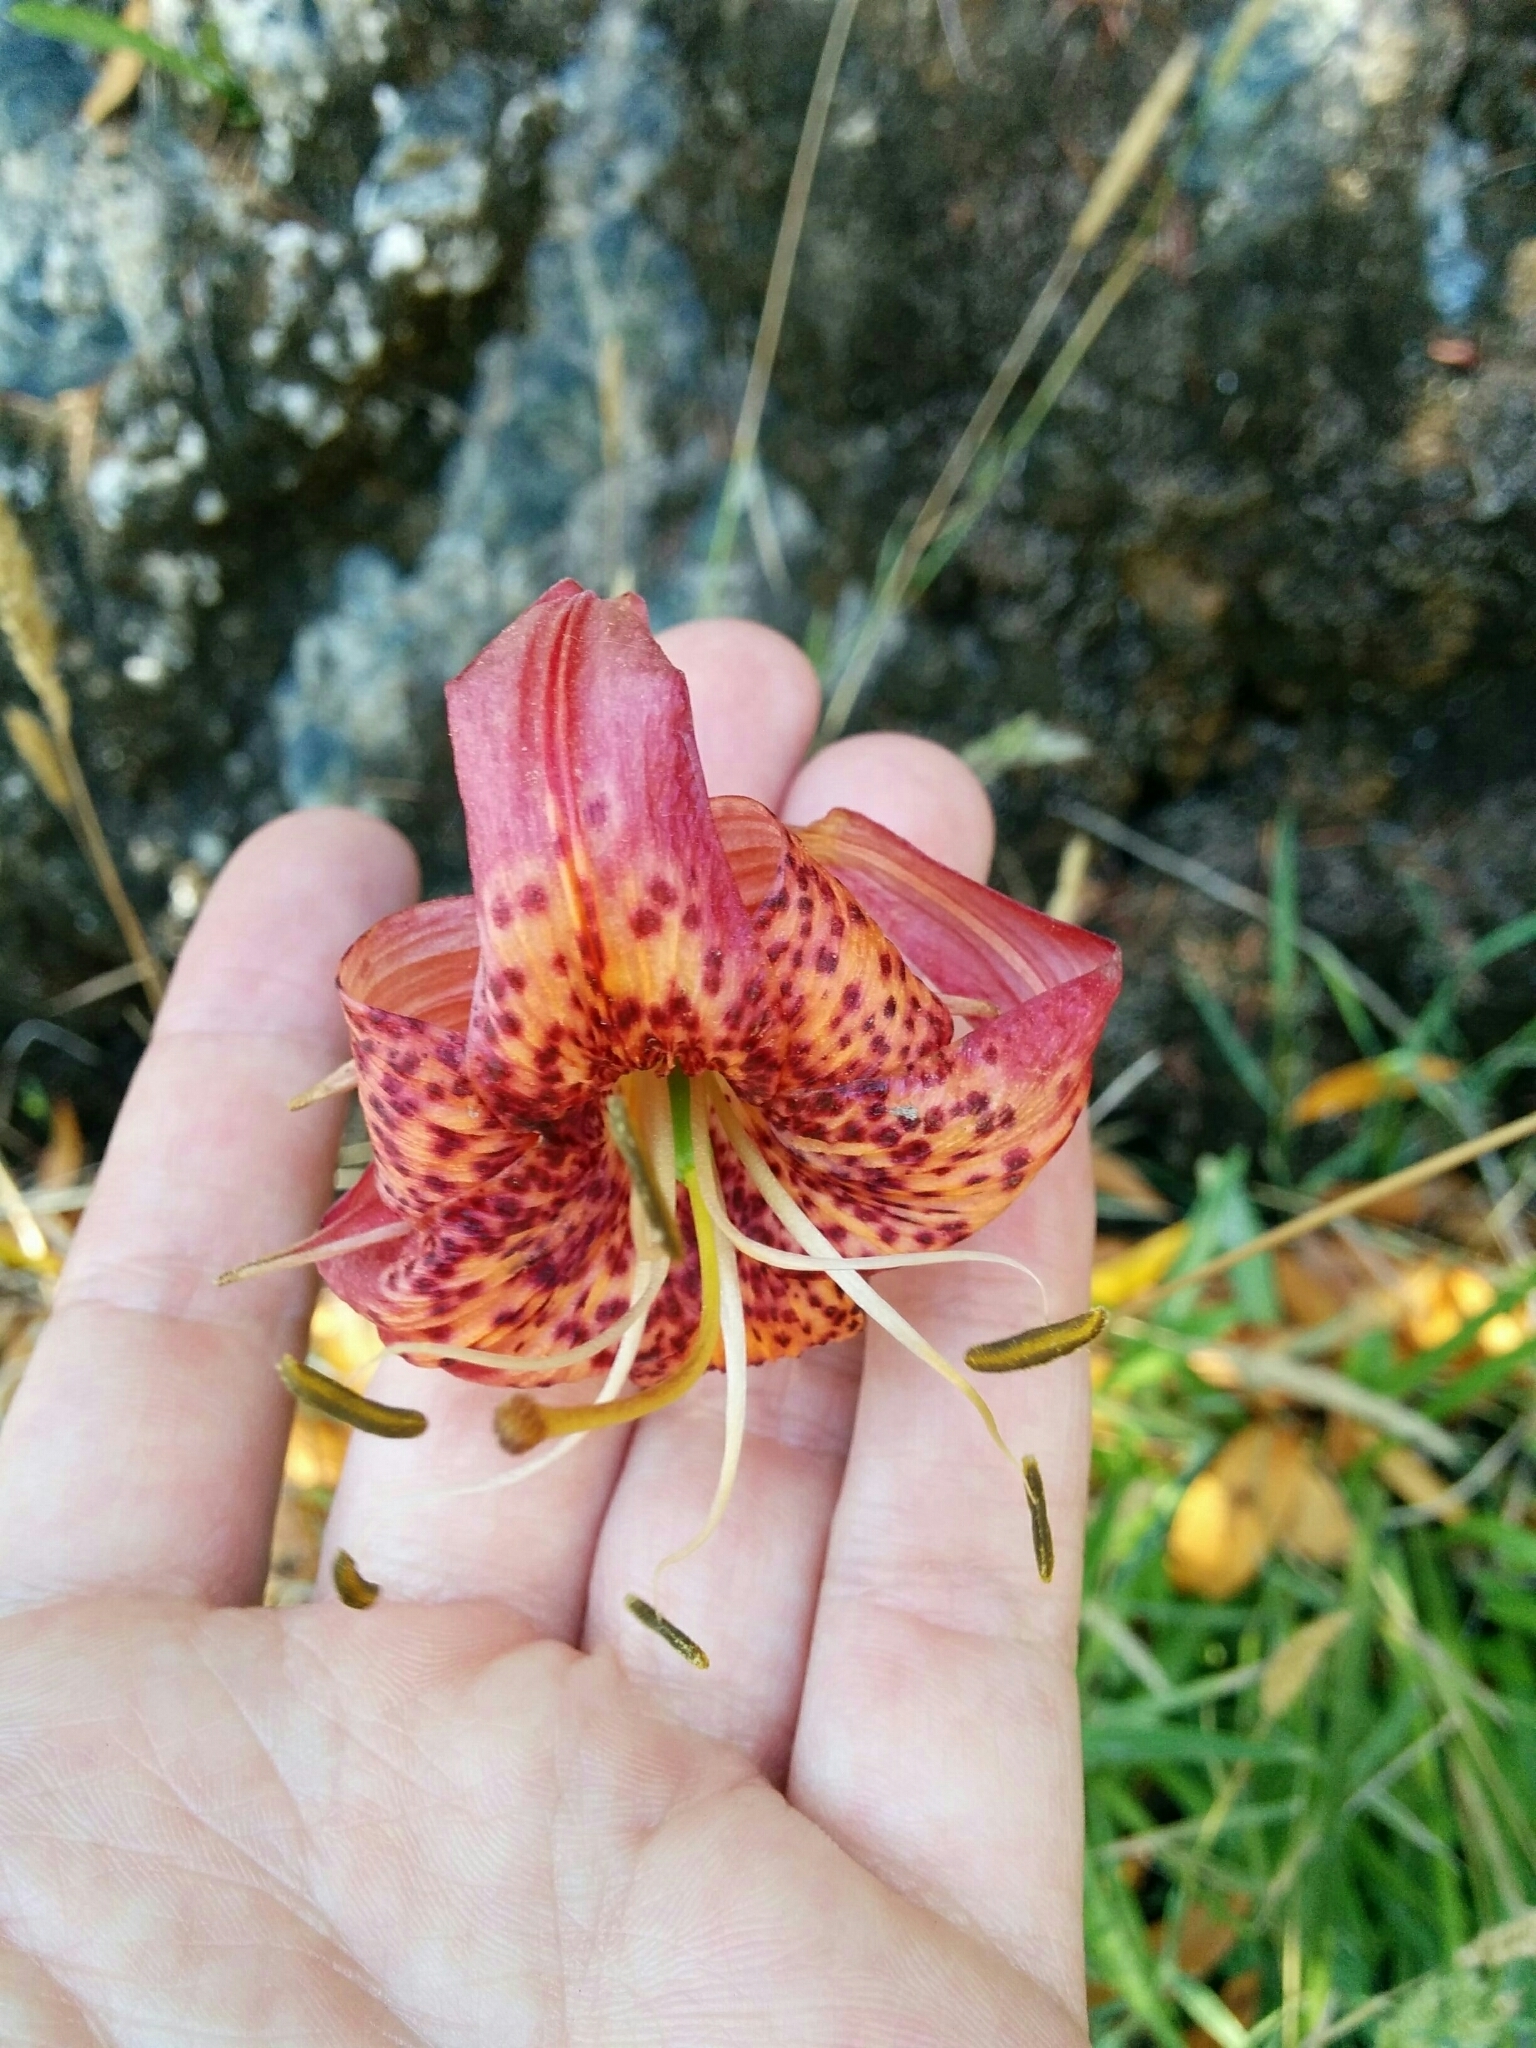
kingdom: Plantae
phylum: Tracheophyta
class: Liliopsida
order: Liliales
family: Liliaceae
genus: Lilium
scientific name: Lilium pardalinum
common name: Panther lily
